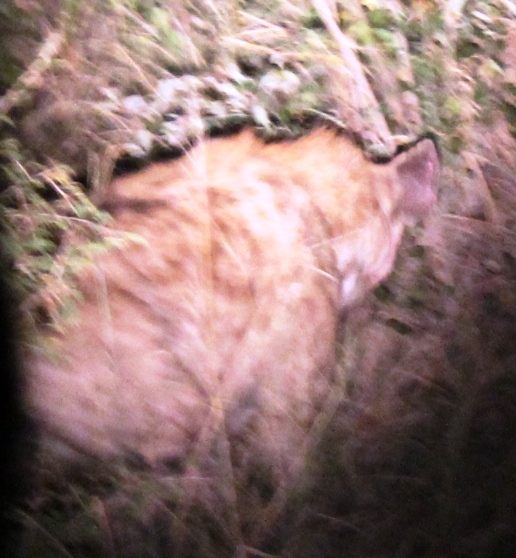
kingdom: Animalia
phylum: Chordata
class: Mammalia
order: Carnivora
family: Hyaenidae
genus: Crocuta
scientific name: Crocuta crocuta
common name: Spotted hyaena
